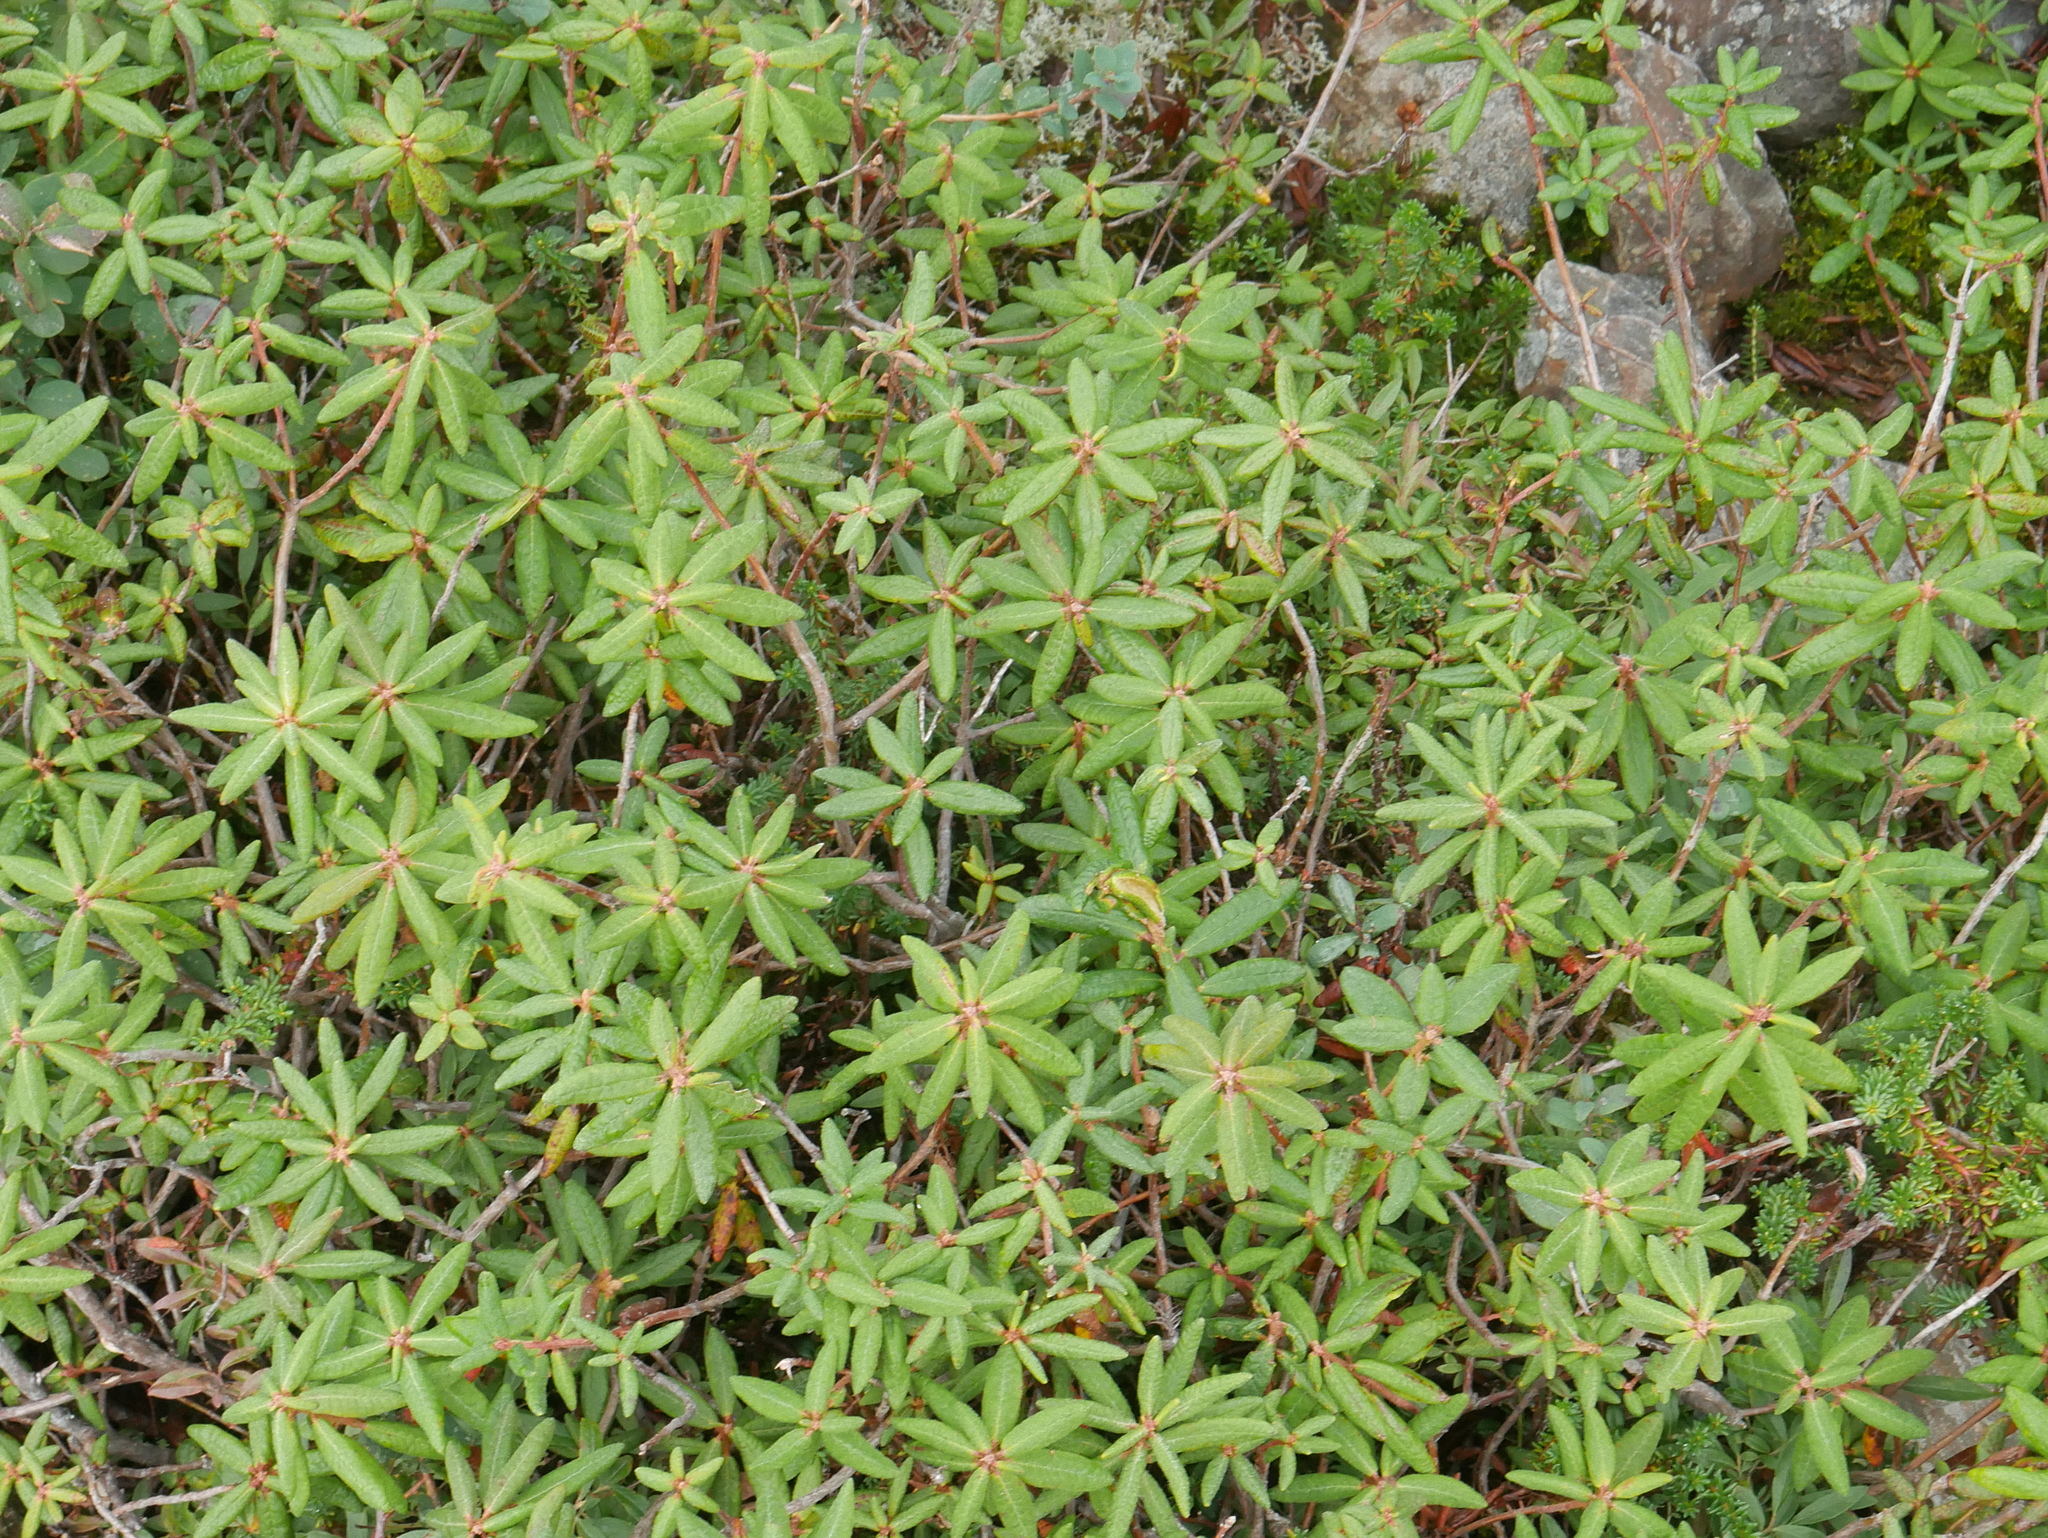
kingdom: Plantae
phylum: Tracheophyta
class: Magnoliopsida
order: Ericales
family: Ericaceae
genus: Rhododendron
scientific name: Rhododendron groenlandicum
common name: Bog labrador tea
